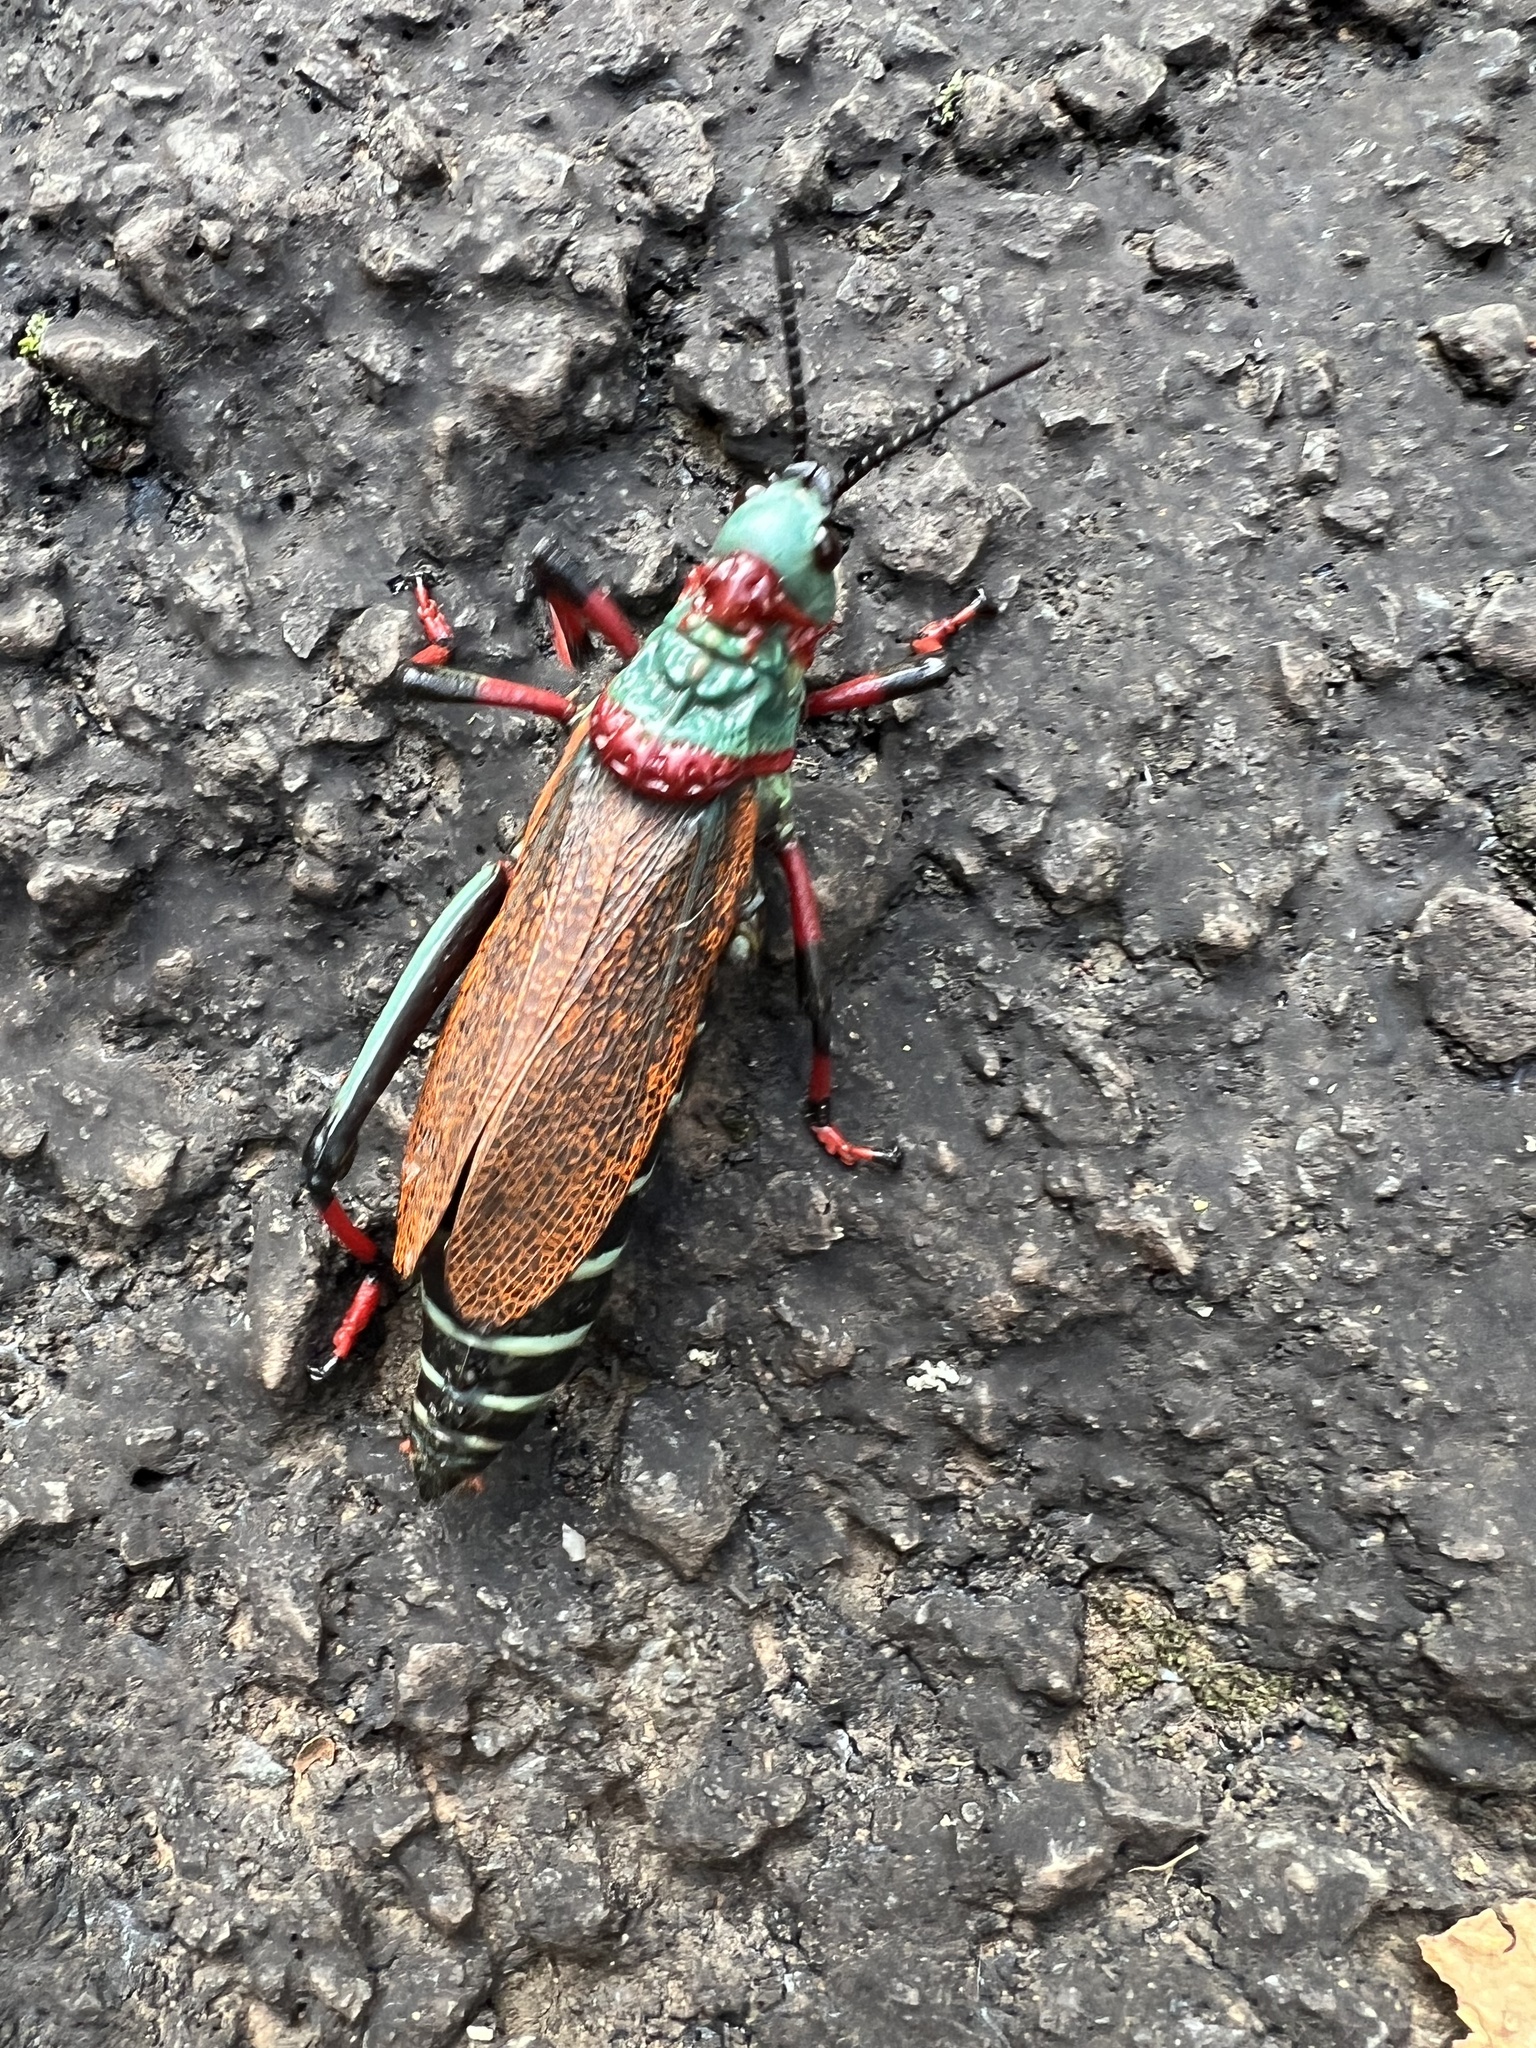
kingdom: Animalia
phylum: Arthropoda
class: Insecta
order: Orthoptera
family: Pyrgomorphidae
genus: Dictyophorus
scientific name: Dictyophorus spumans
